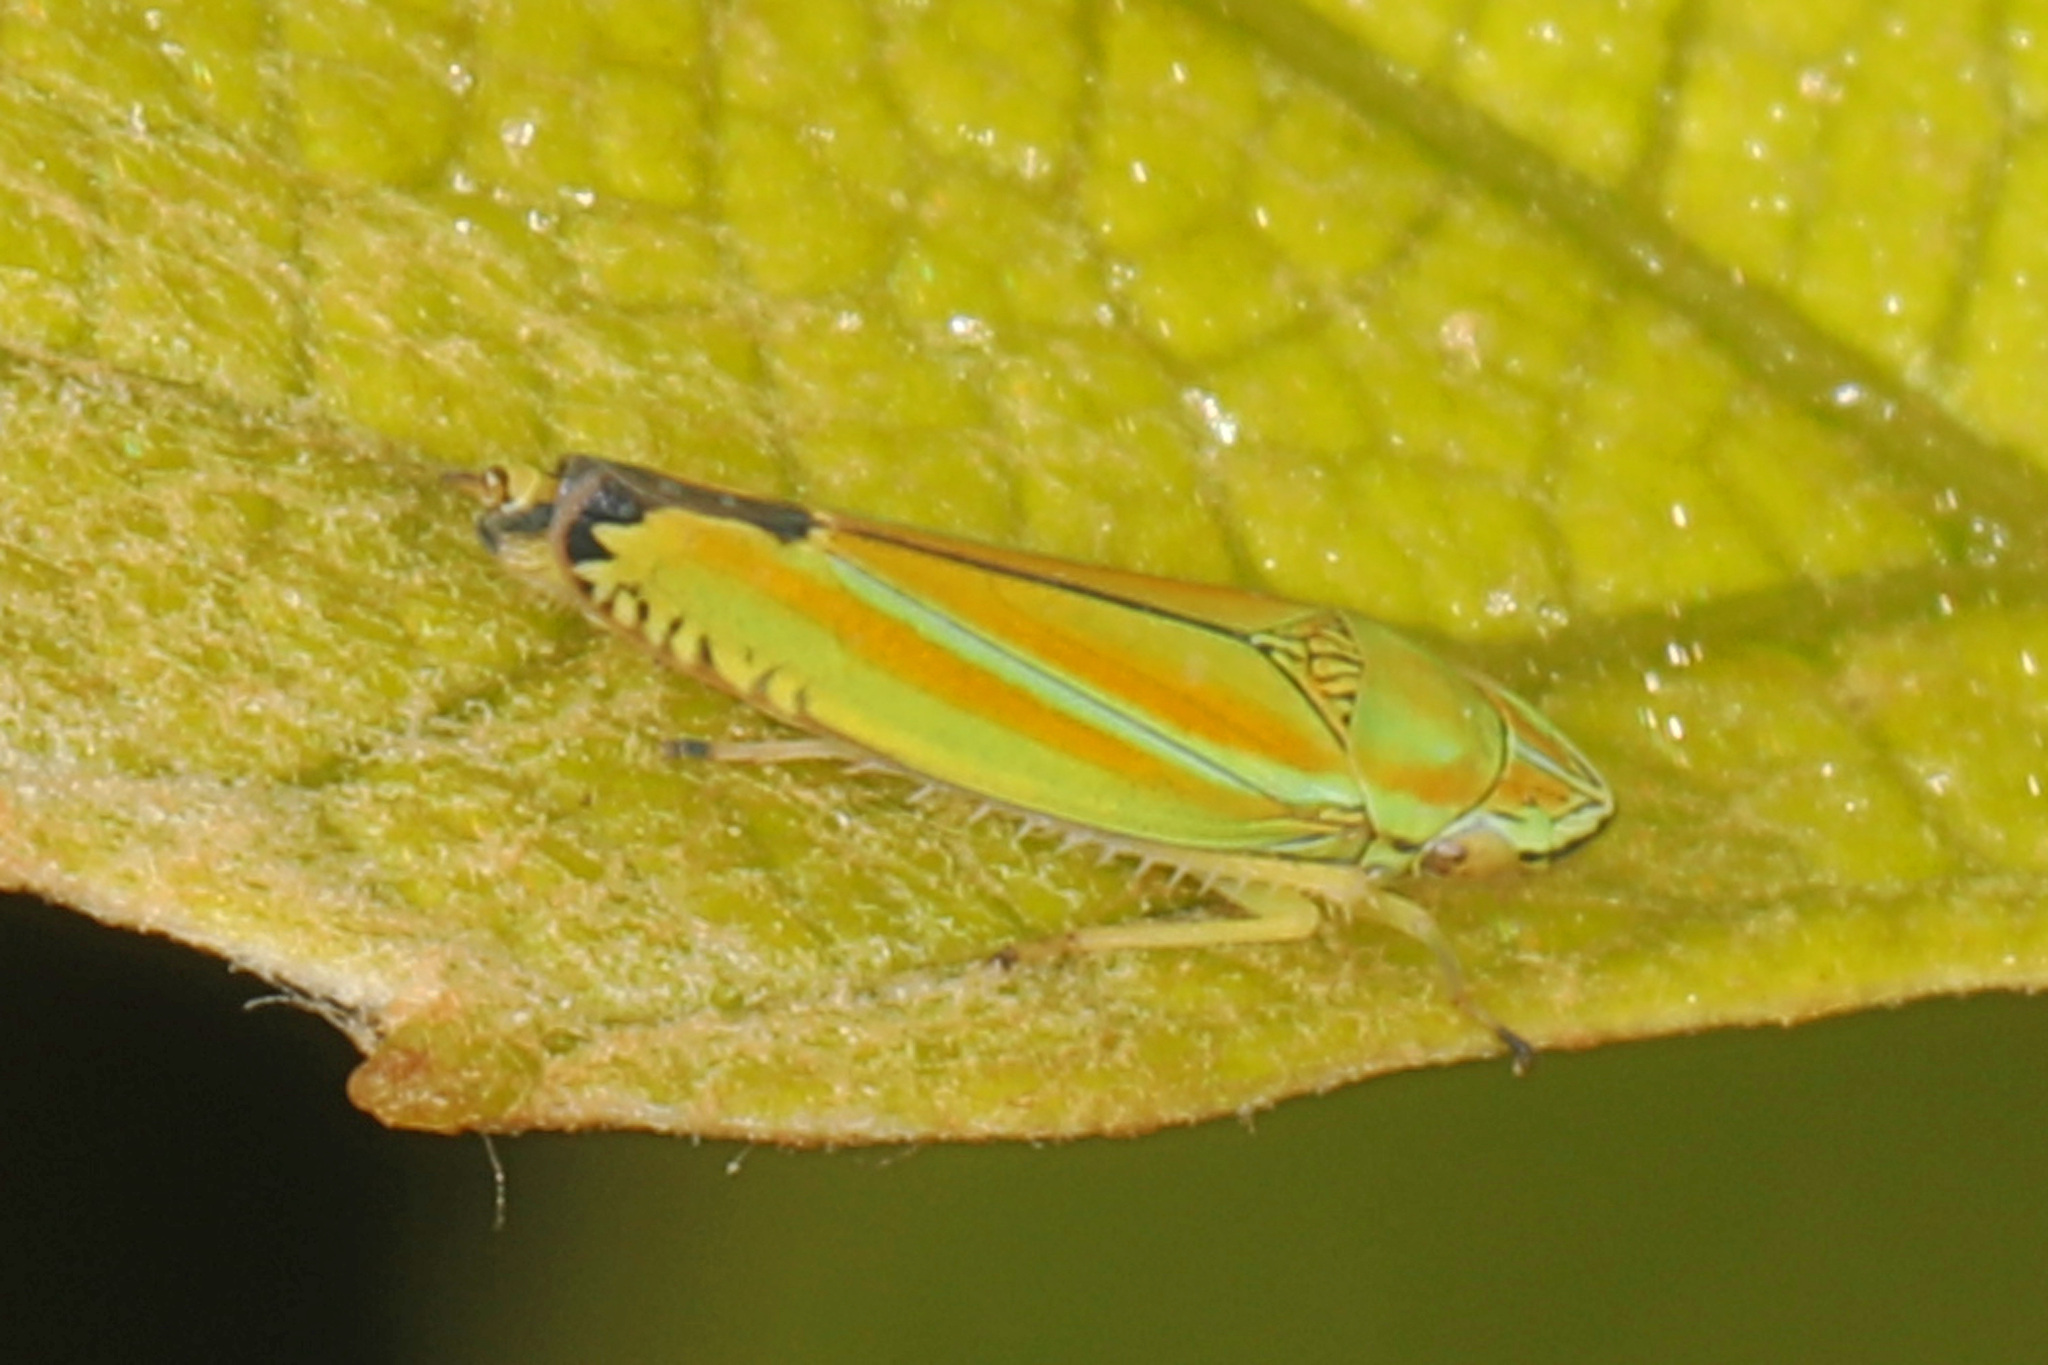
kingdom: Animalia
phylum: Arthropoda
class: Insecta
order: Hemiptera
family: Cicadellidae
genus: Graphocephala
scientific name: Graphocephala versuta
